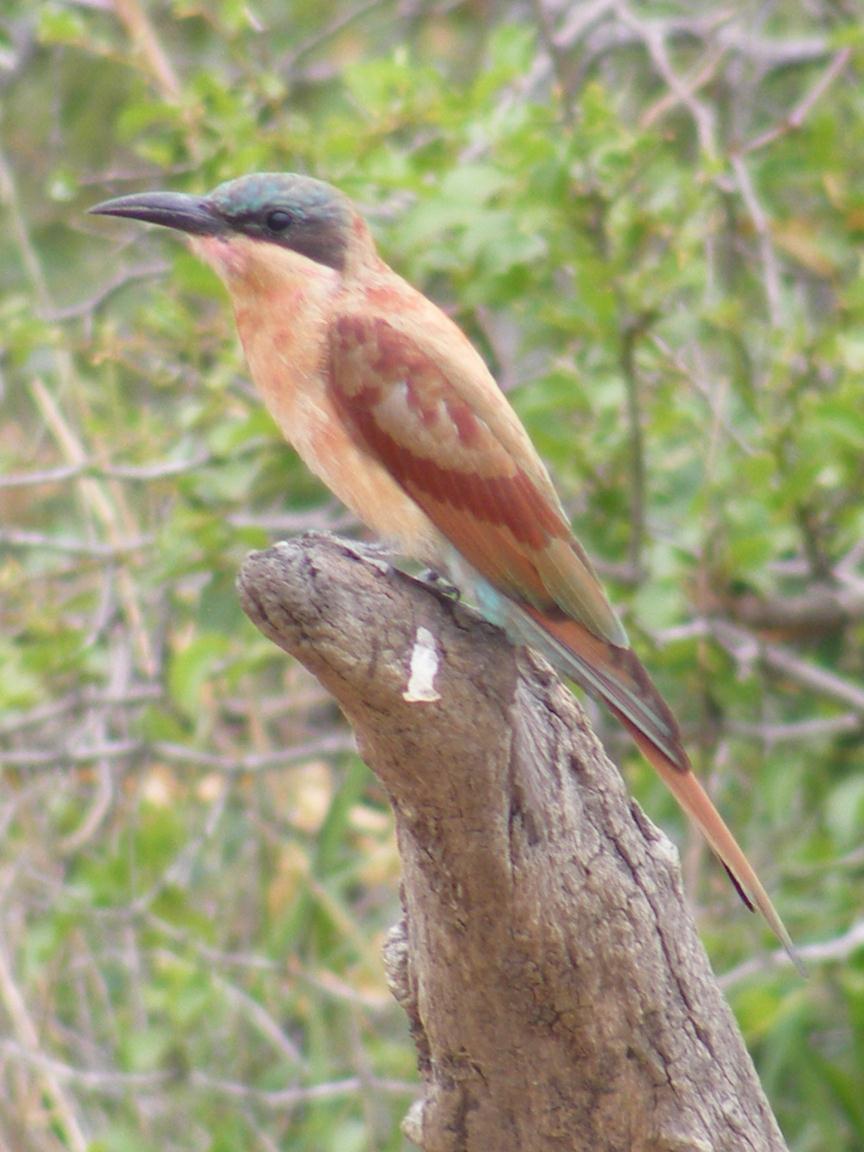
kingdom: Animalia
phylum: Chordata
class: Aves
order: Coraciiformes
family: Meropidae
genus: Merops
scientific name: Merops nubicoides
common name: Southern carmine bee-eater
